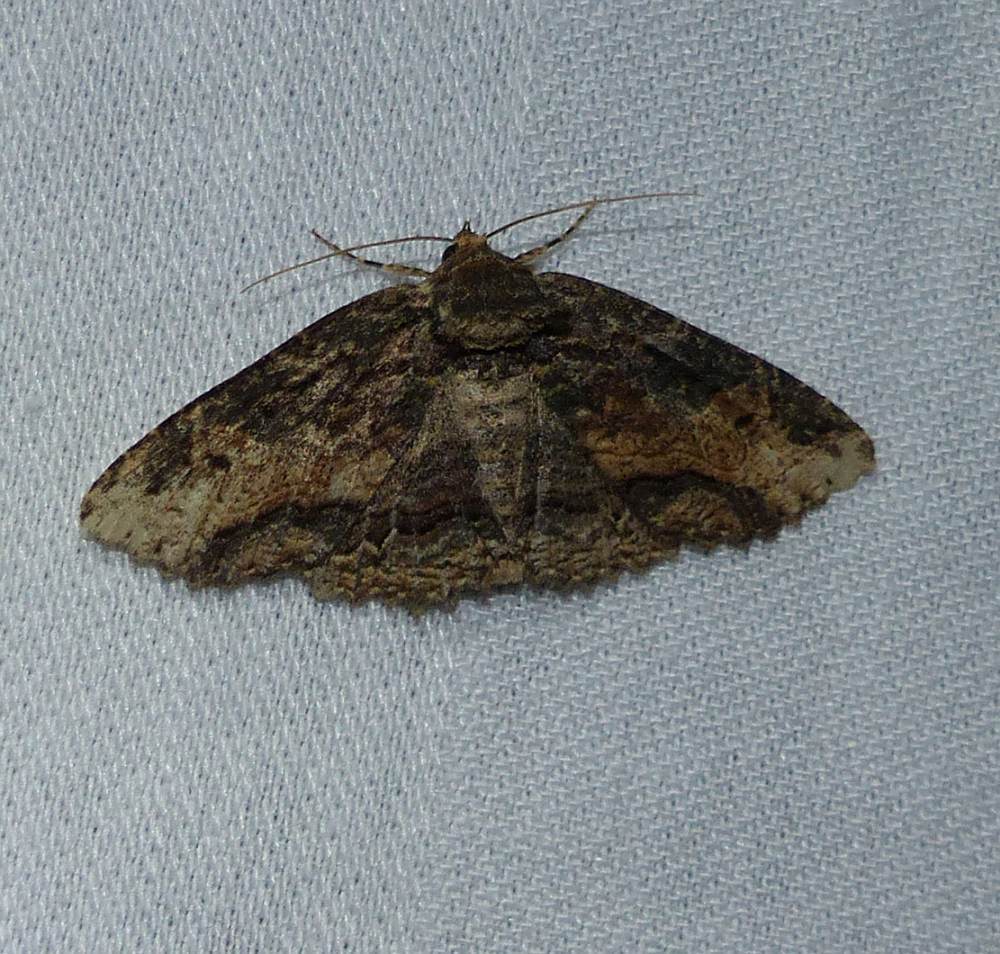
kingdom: Animalia
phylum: Arthropoda
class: Insecta
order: Lepidoptera
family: Erebidae
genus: Zale
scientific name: Zale minerea
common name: Colorful zale moth
